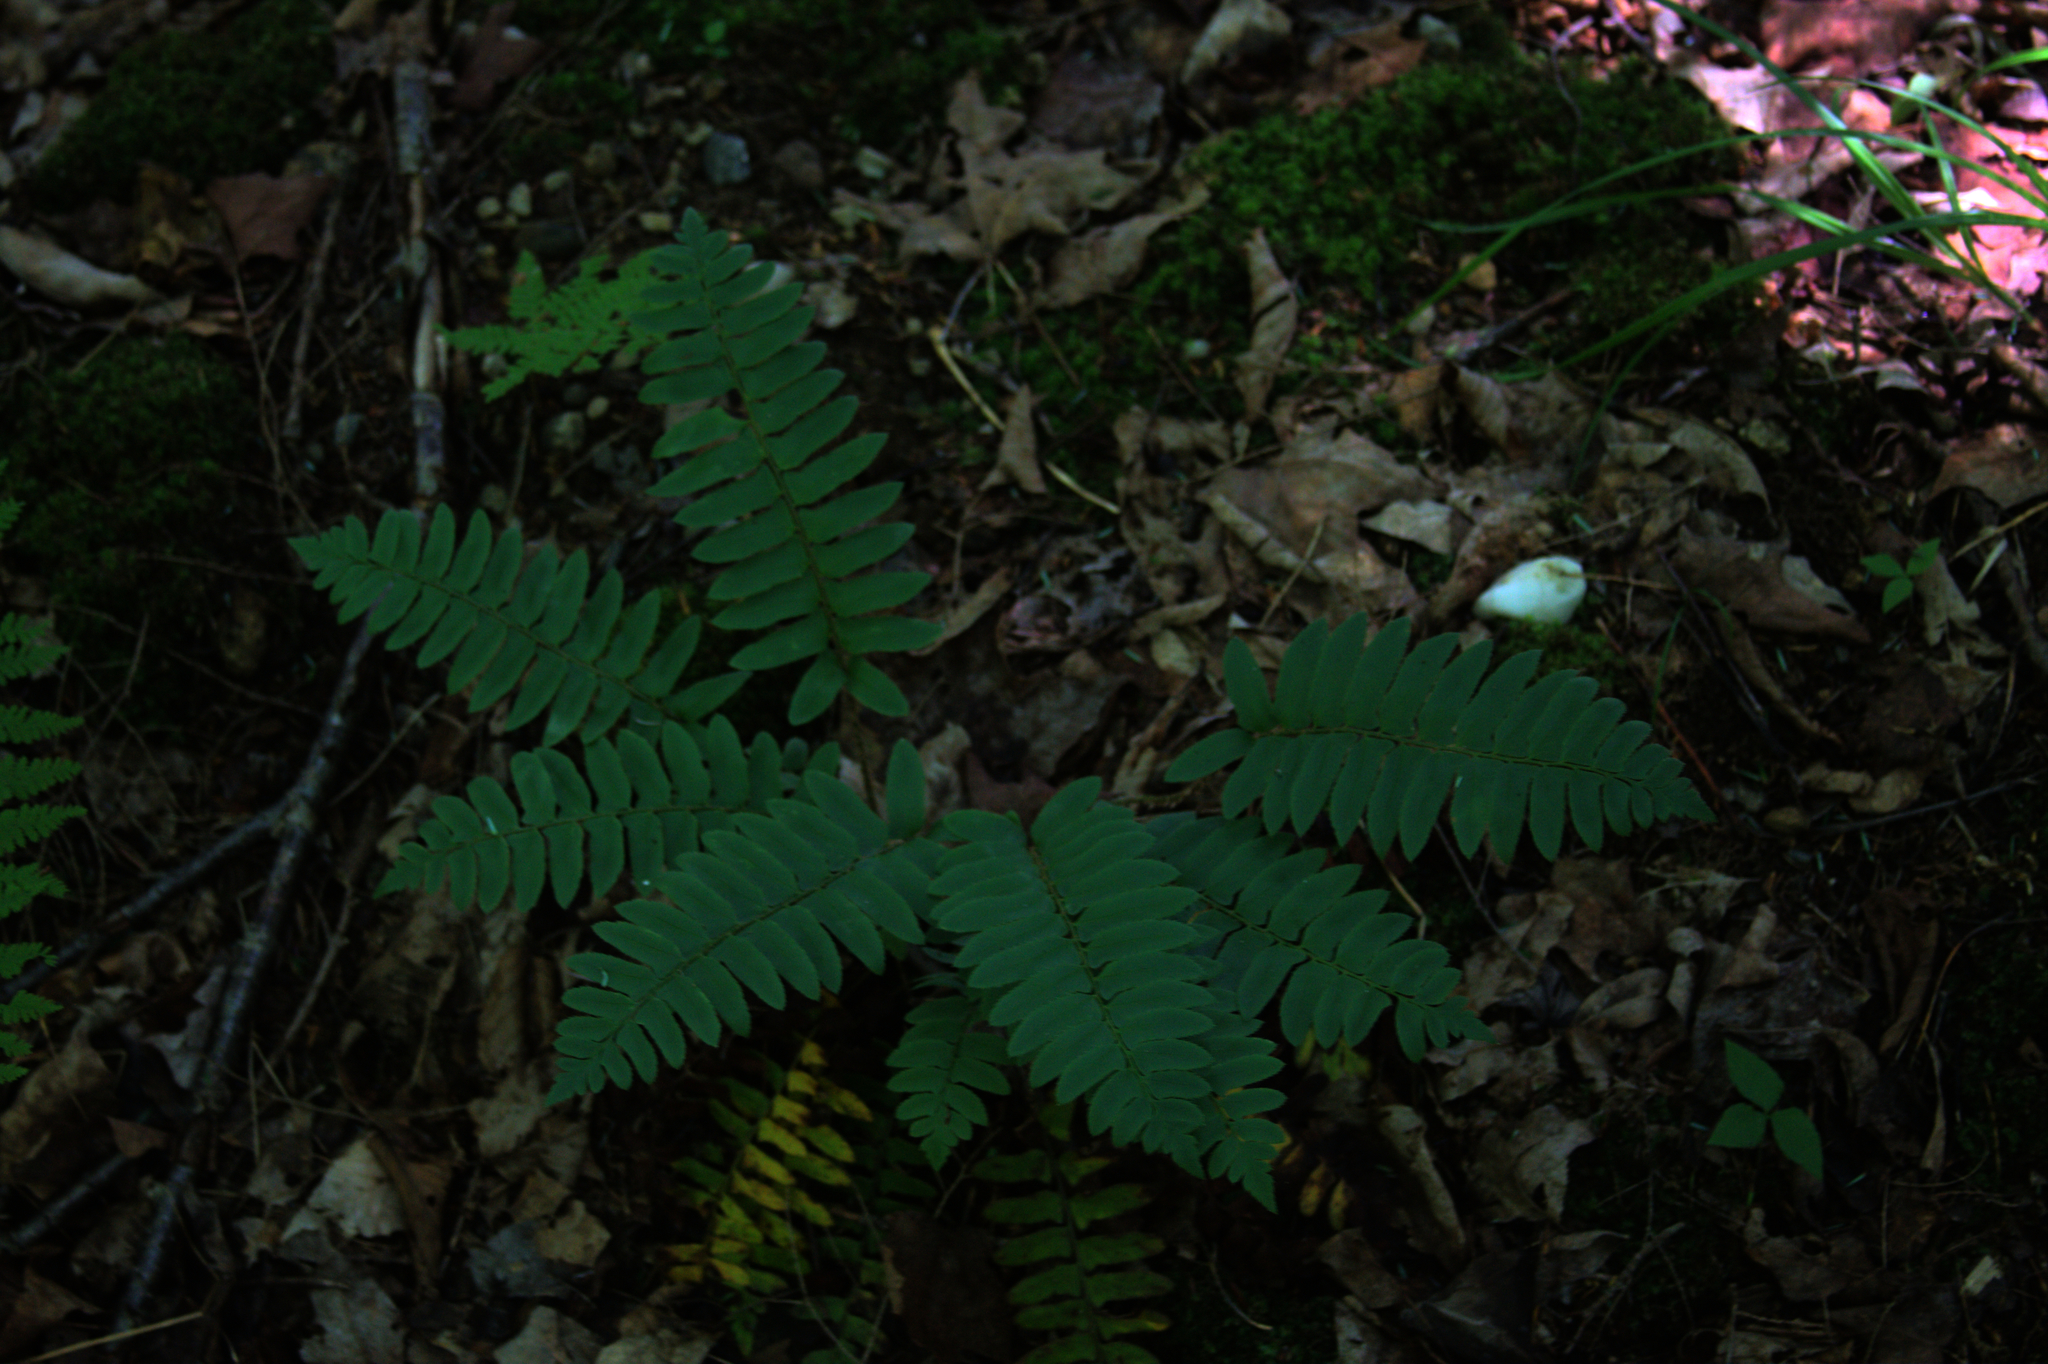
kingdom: Plantae
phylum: Tracheophyta
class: Polypodiopsida
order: Polypodiales
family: Dryopteridaceae
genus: Polystichum
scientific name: Polystichum acrostichoides
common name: Christmas fern
